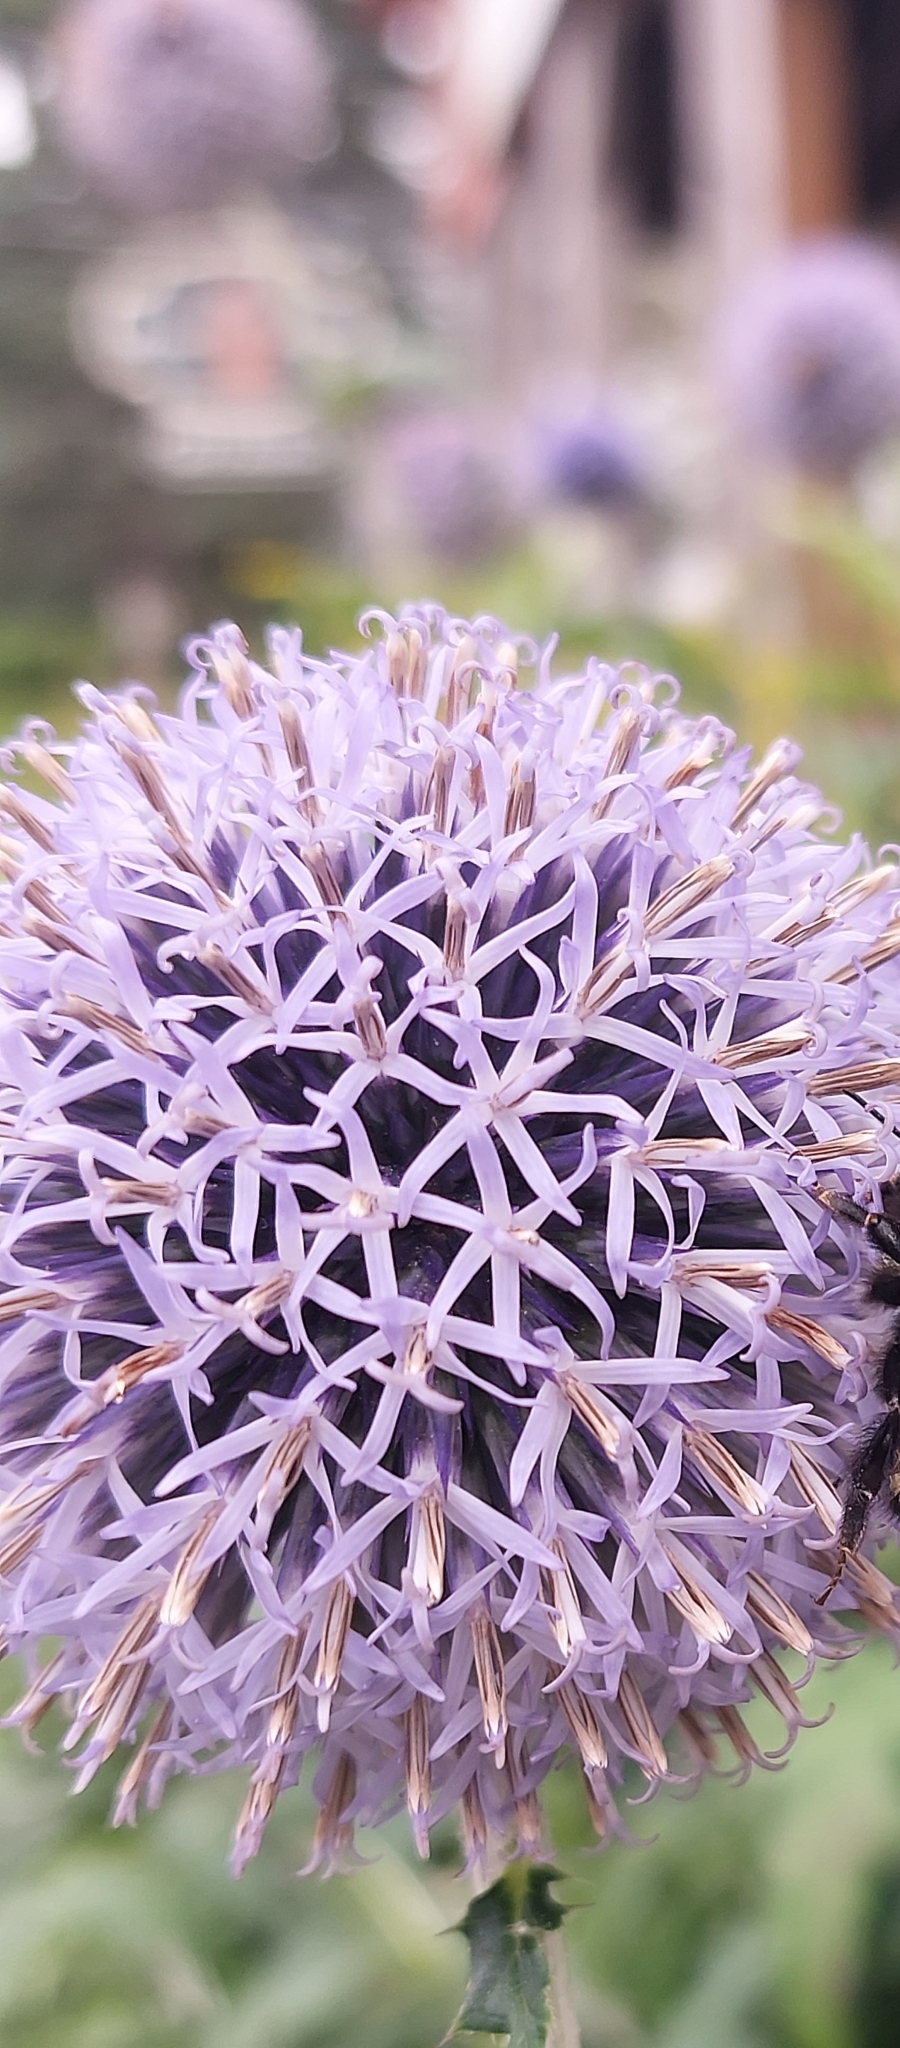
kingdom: Plantae
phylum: Tracheophyta
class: Magnoliopsida
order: Asterales
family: Asteraceae
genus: Echinops
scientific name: Echinops bannaticus
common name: Blue globe-thistle
